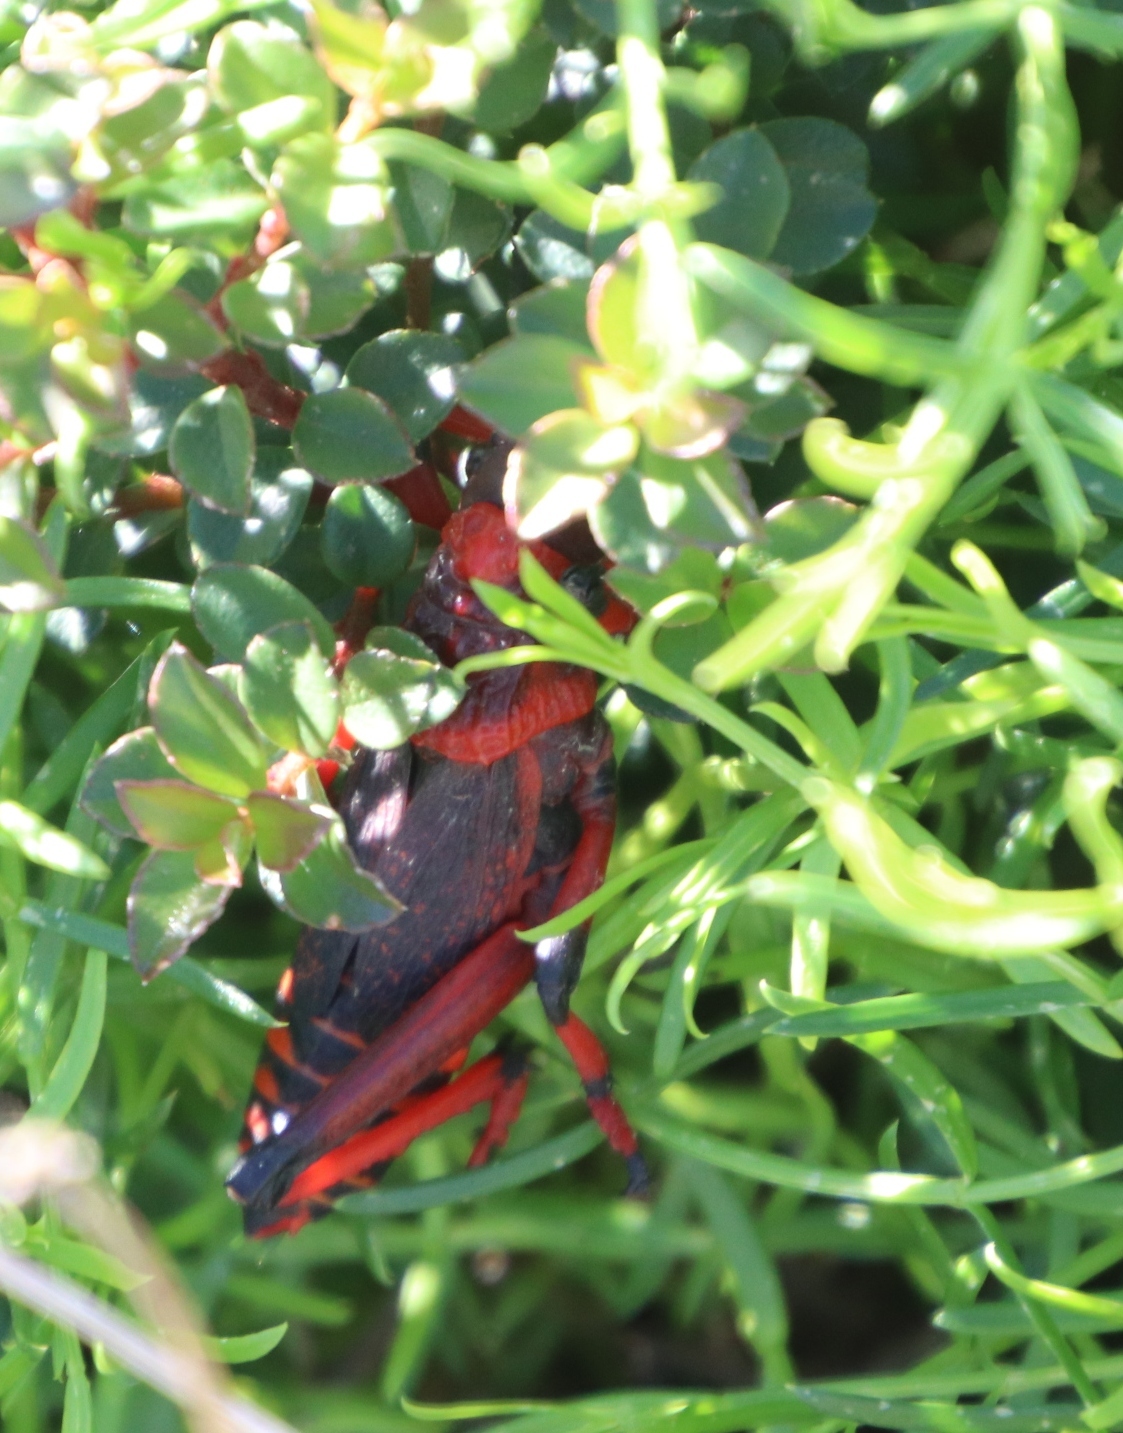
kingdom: Animalia
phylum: Arthropoda
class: Insecta
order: Orthoptera
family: Pyrgomorphidae
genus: Dictyophorus
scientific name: Dictyophorus spumans
